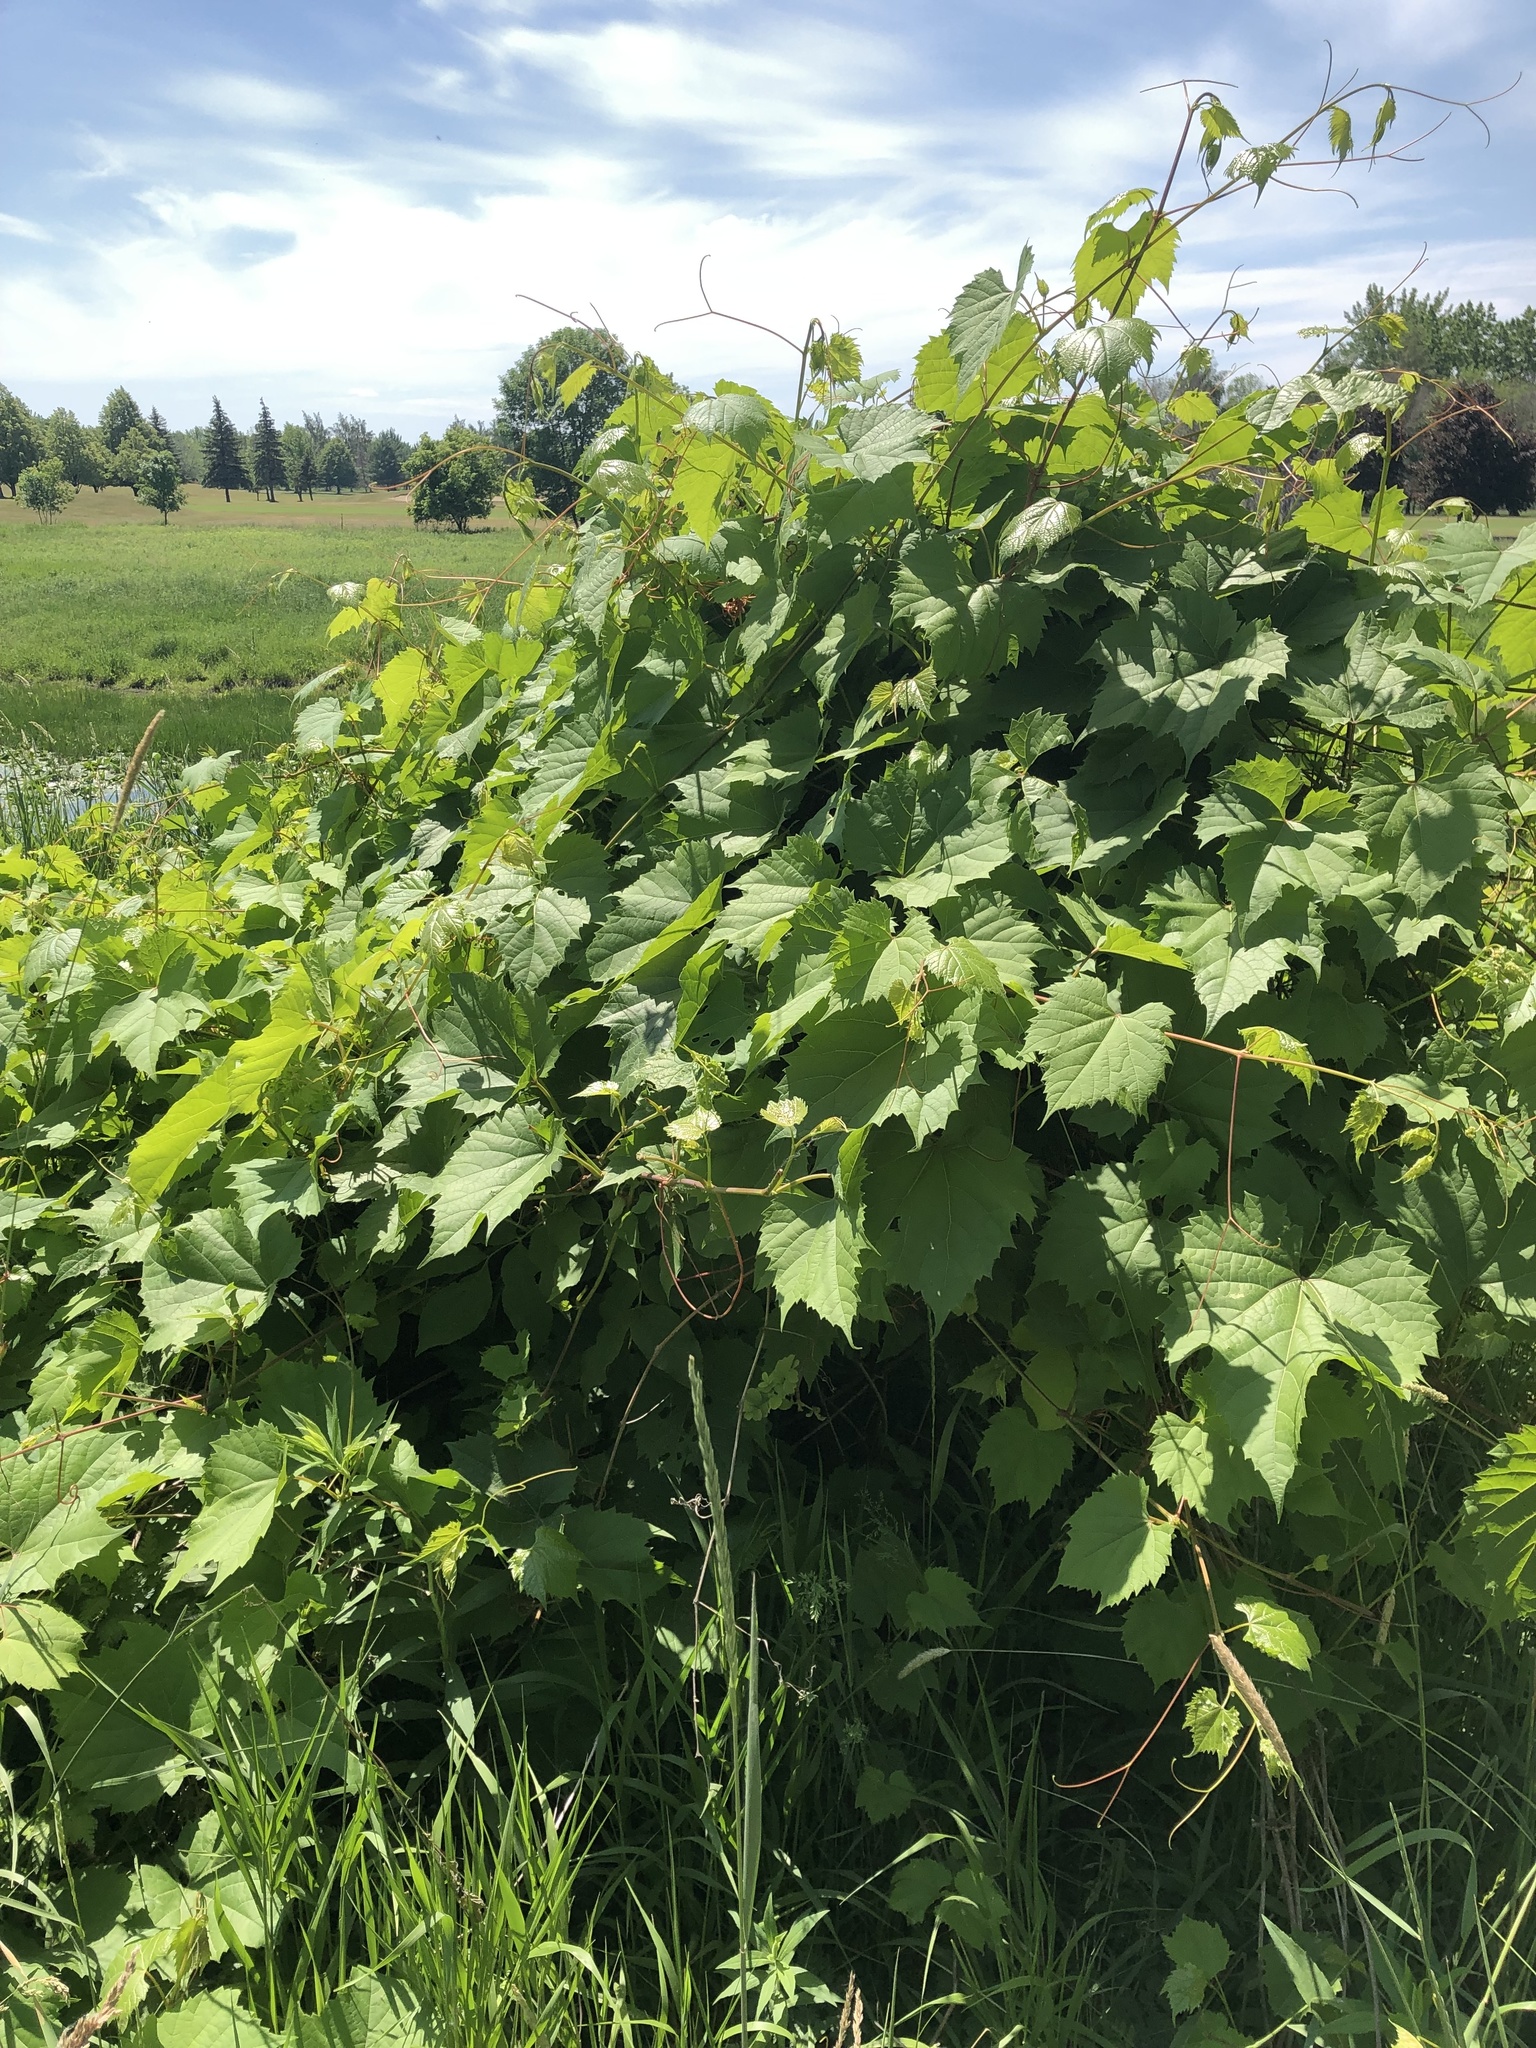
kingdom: Plantae
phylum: Tracheophyta
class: Magnoliopsida
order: Vitales
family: Vitaceae
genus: Vitis
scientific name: Vitis riparia
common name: Frost grape
